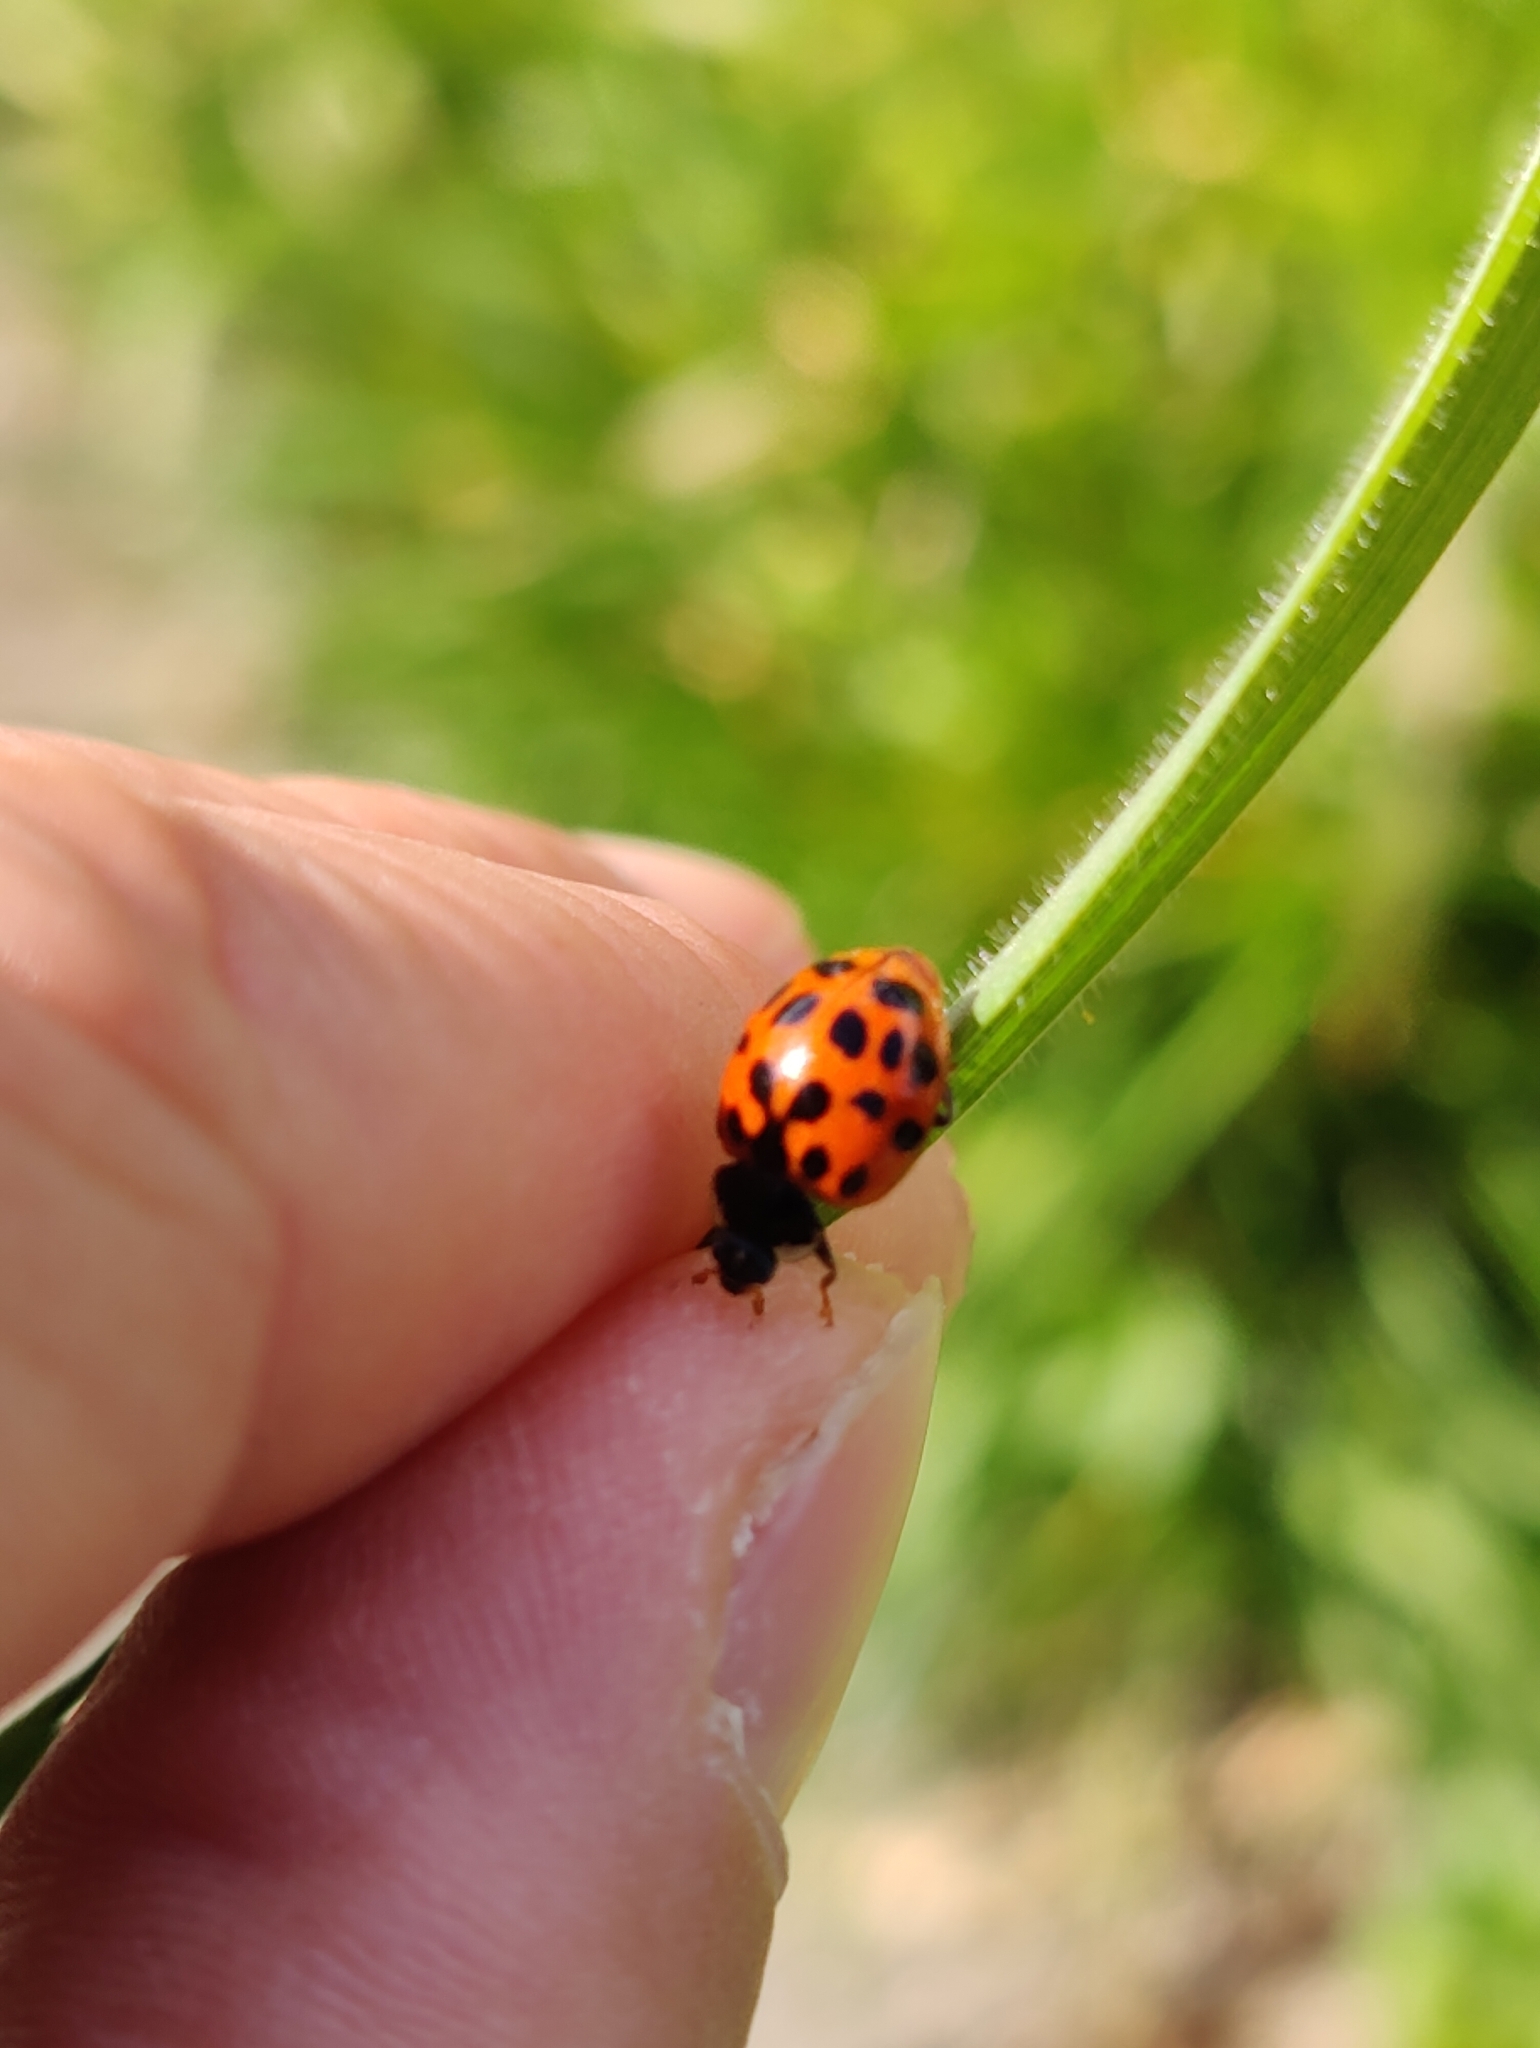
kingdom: Animalia
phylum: Arthropoda
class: Insecta
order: Coleoptera
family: Coccinellidae
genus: Harmonia
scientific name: Harmonia axyridis
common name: Harlequin ladybird
